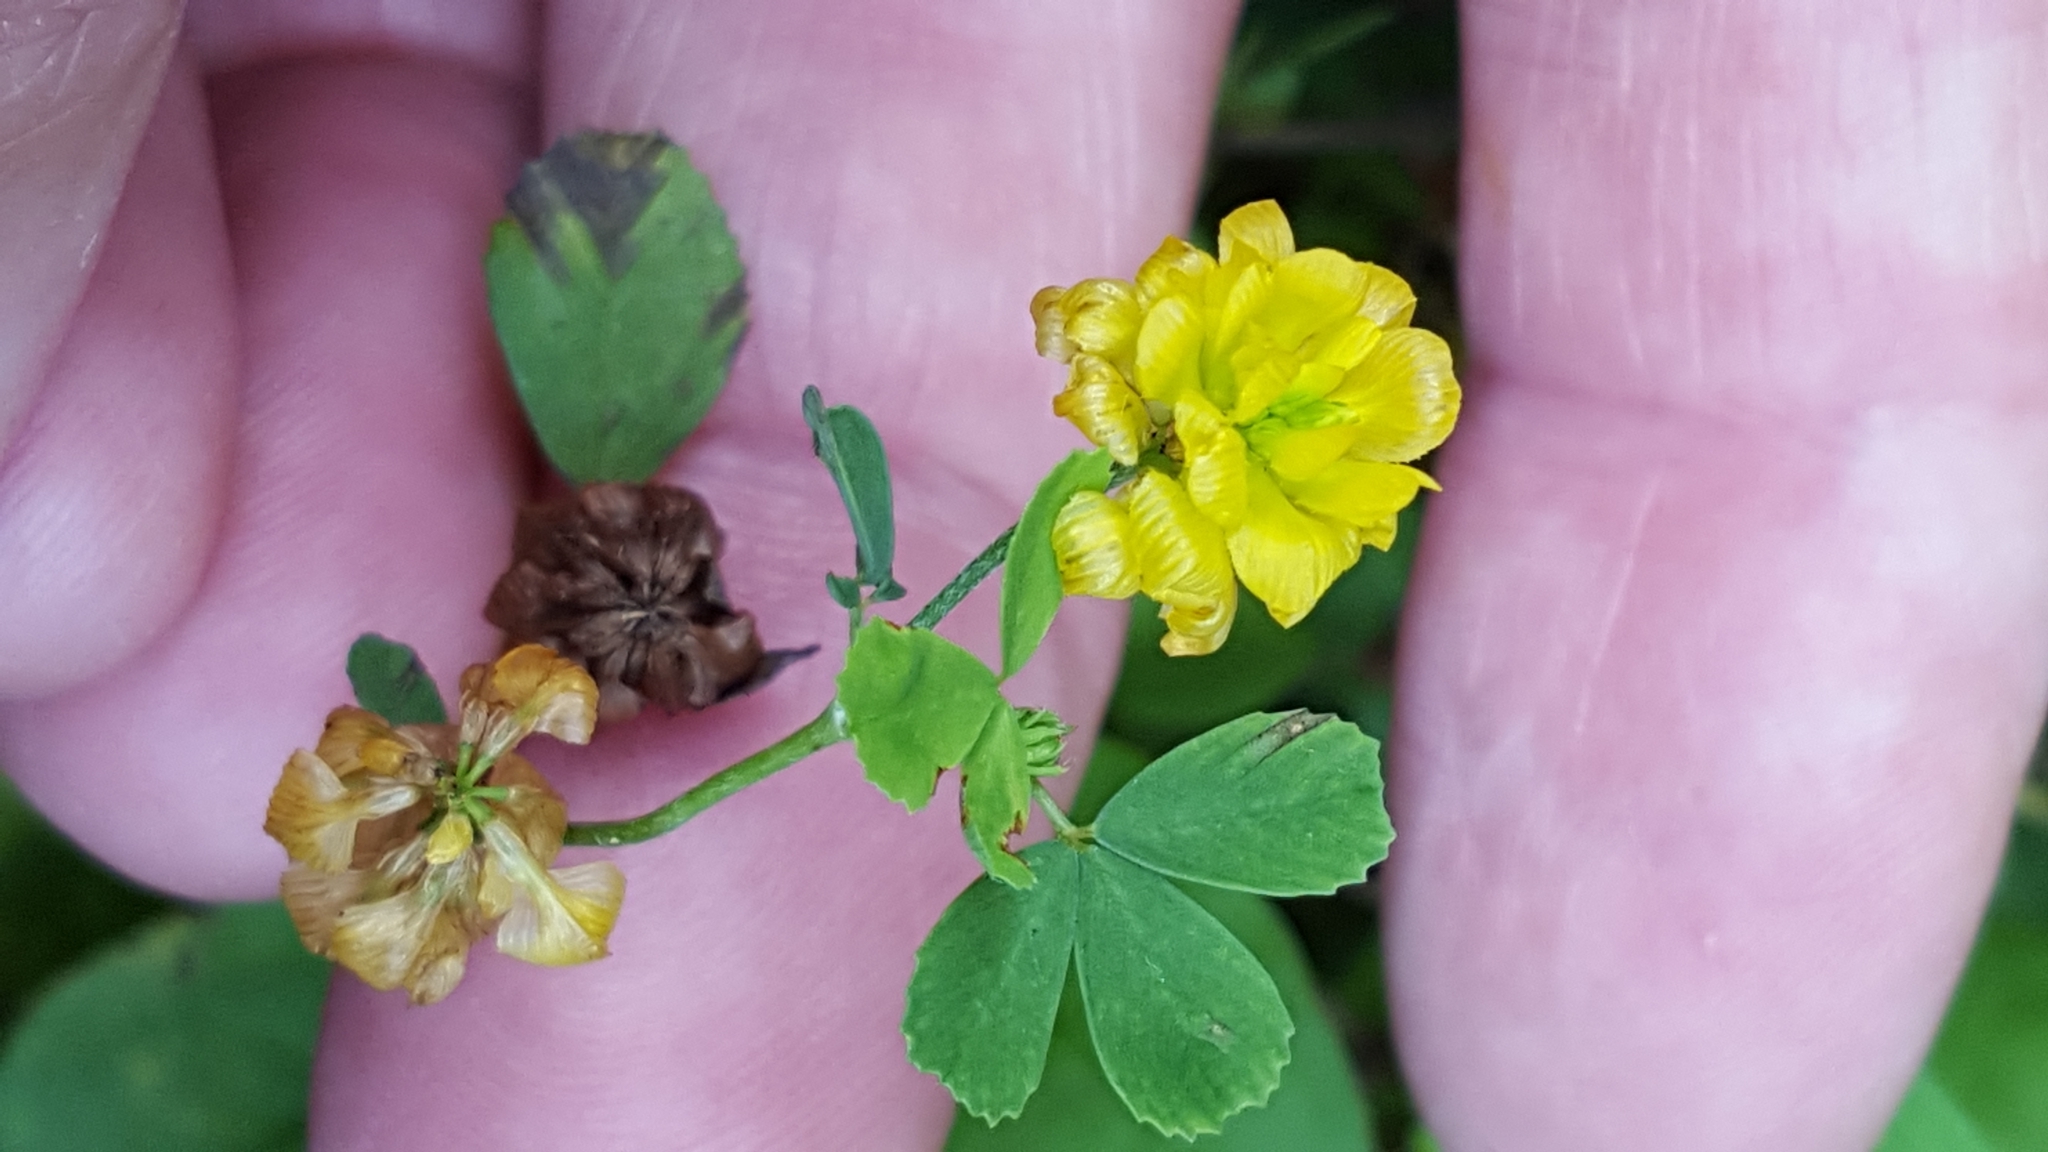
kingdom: Plantae
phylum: Tracheophyta
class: Magnoliopsida
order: Fabales
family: Fabaceae
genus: Trifolium
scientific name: Trifolium aureum
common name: Golden clover
